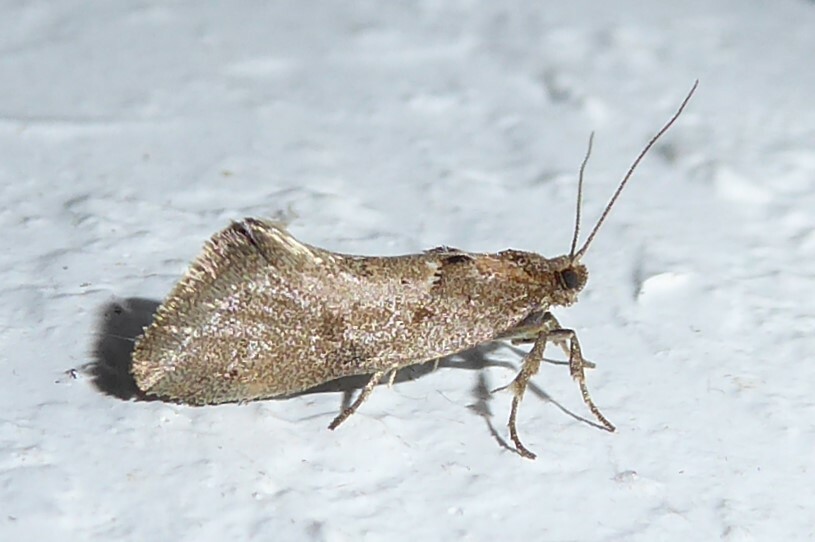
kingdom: Animalia
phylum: Arthropoda
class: Insecta
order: Lepidoptera
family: Oecophoridae
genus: Tingena
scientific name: Tingena brachyacma
